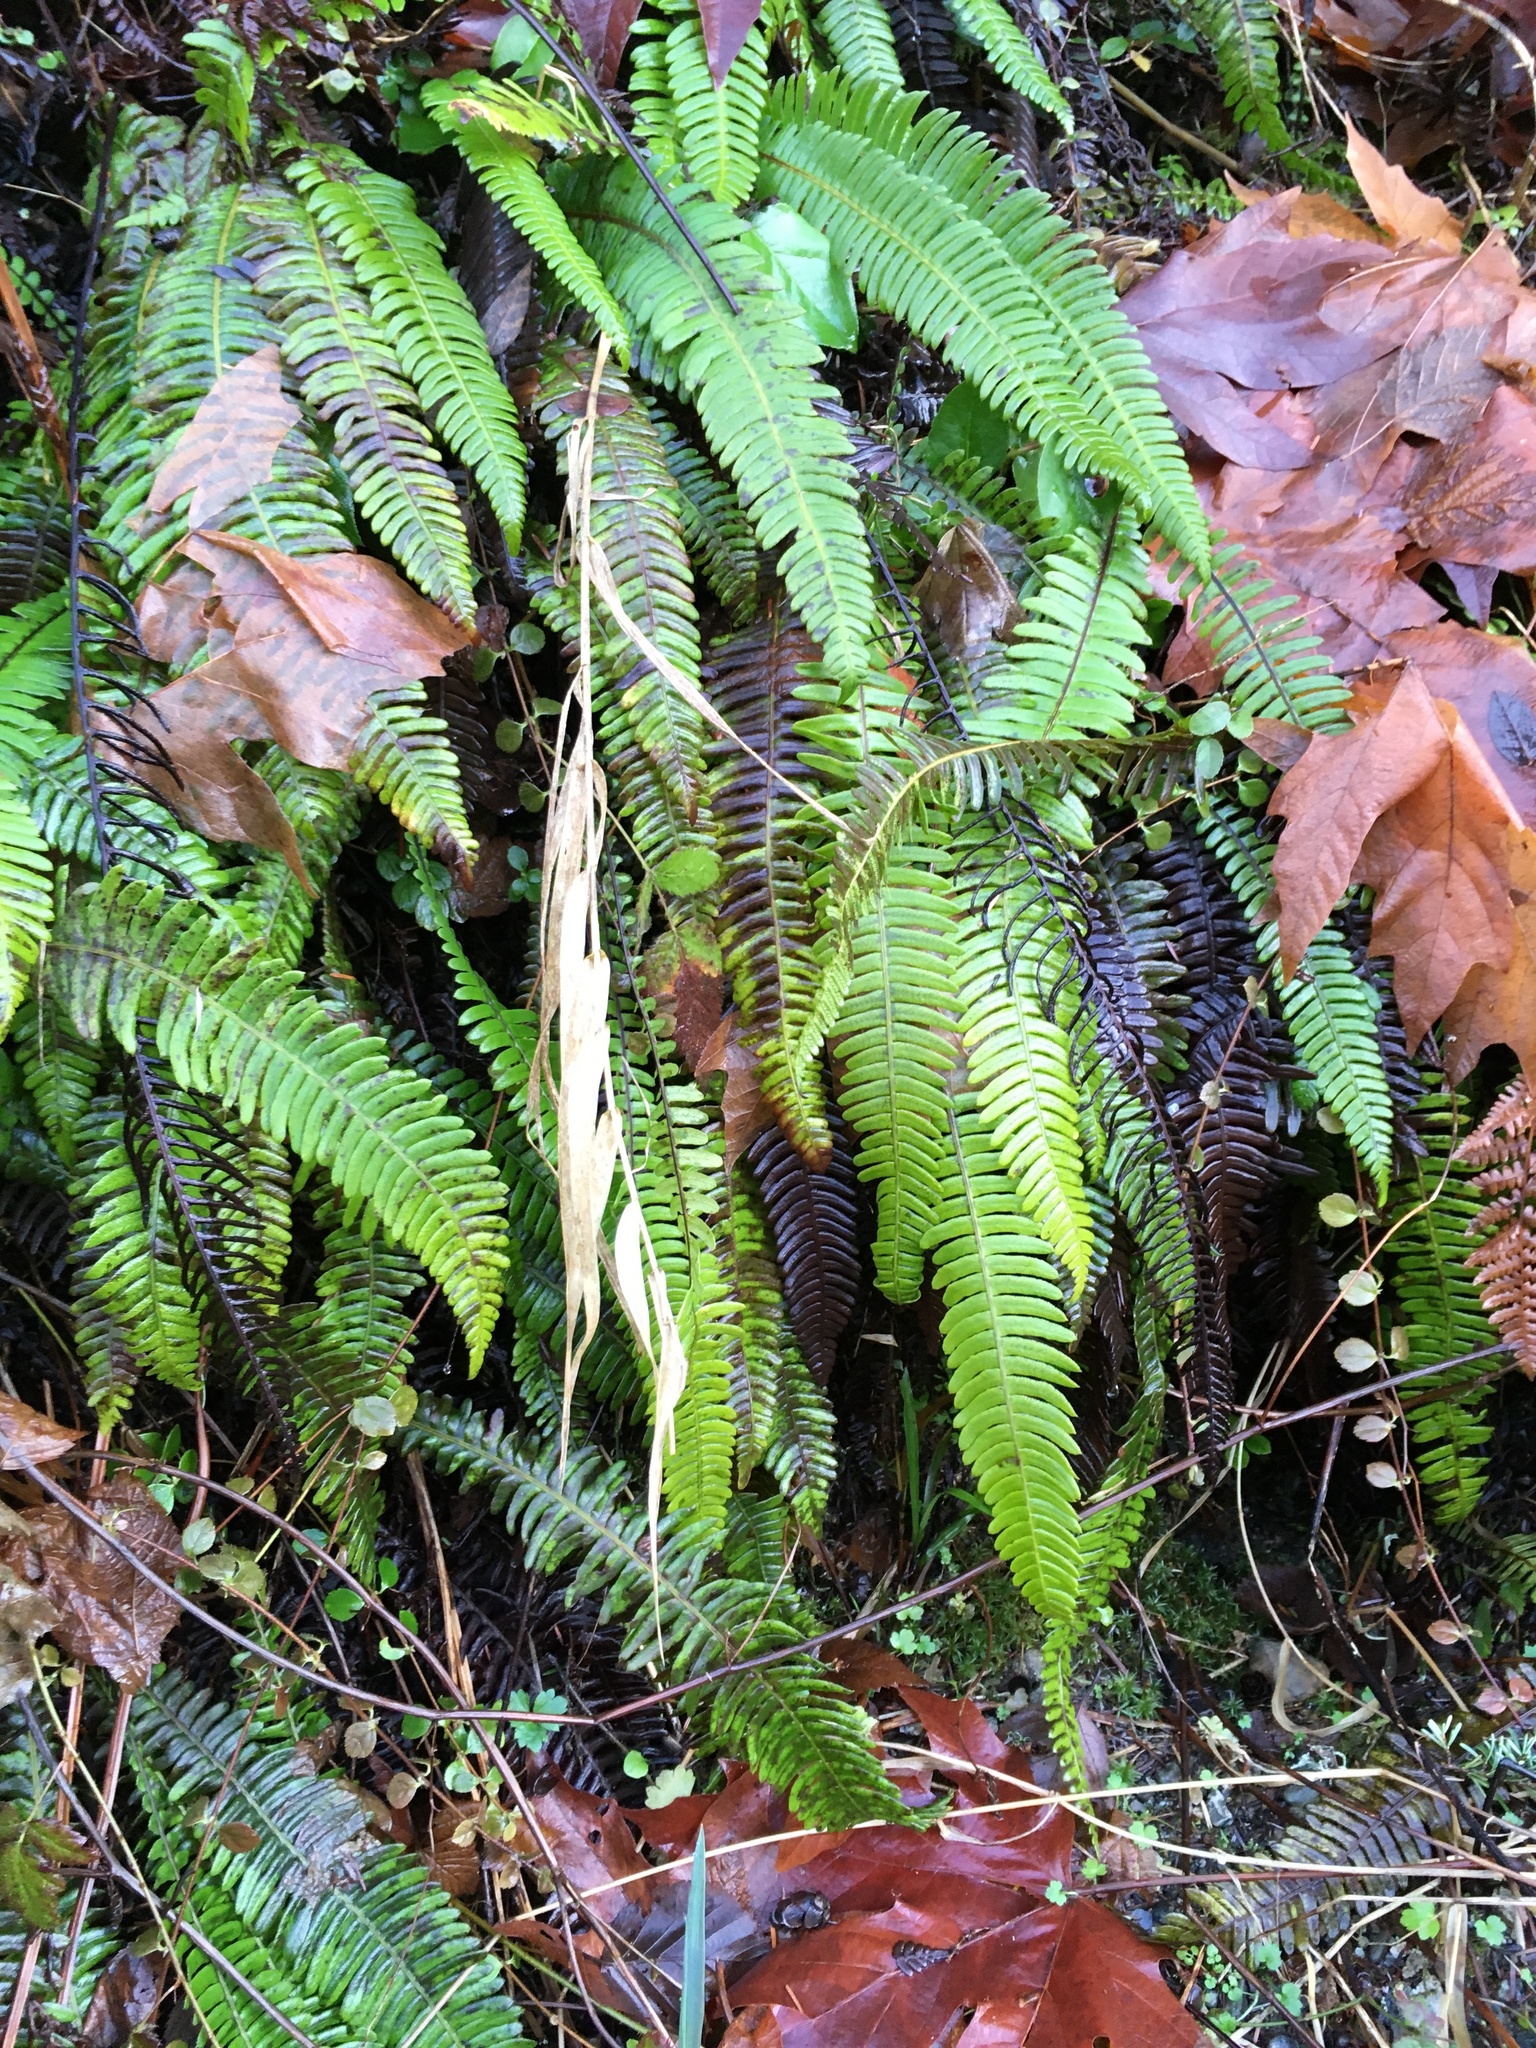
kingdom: Plantae
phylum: Tracheophyta
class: Polypodiopsida
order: Polypodiales
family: Blechnaceae
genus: Struthiopteris
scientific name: Struthiopteris spicant
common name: Deer fern
